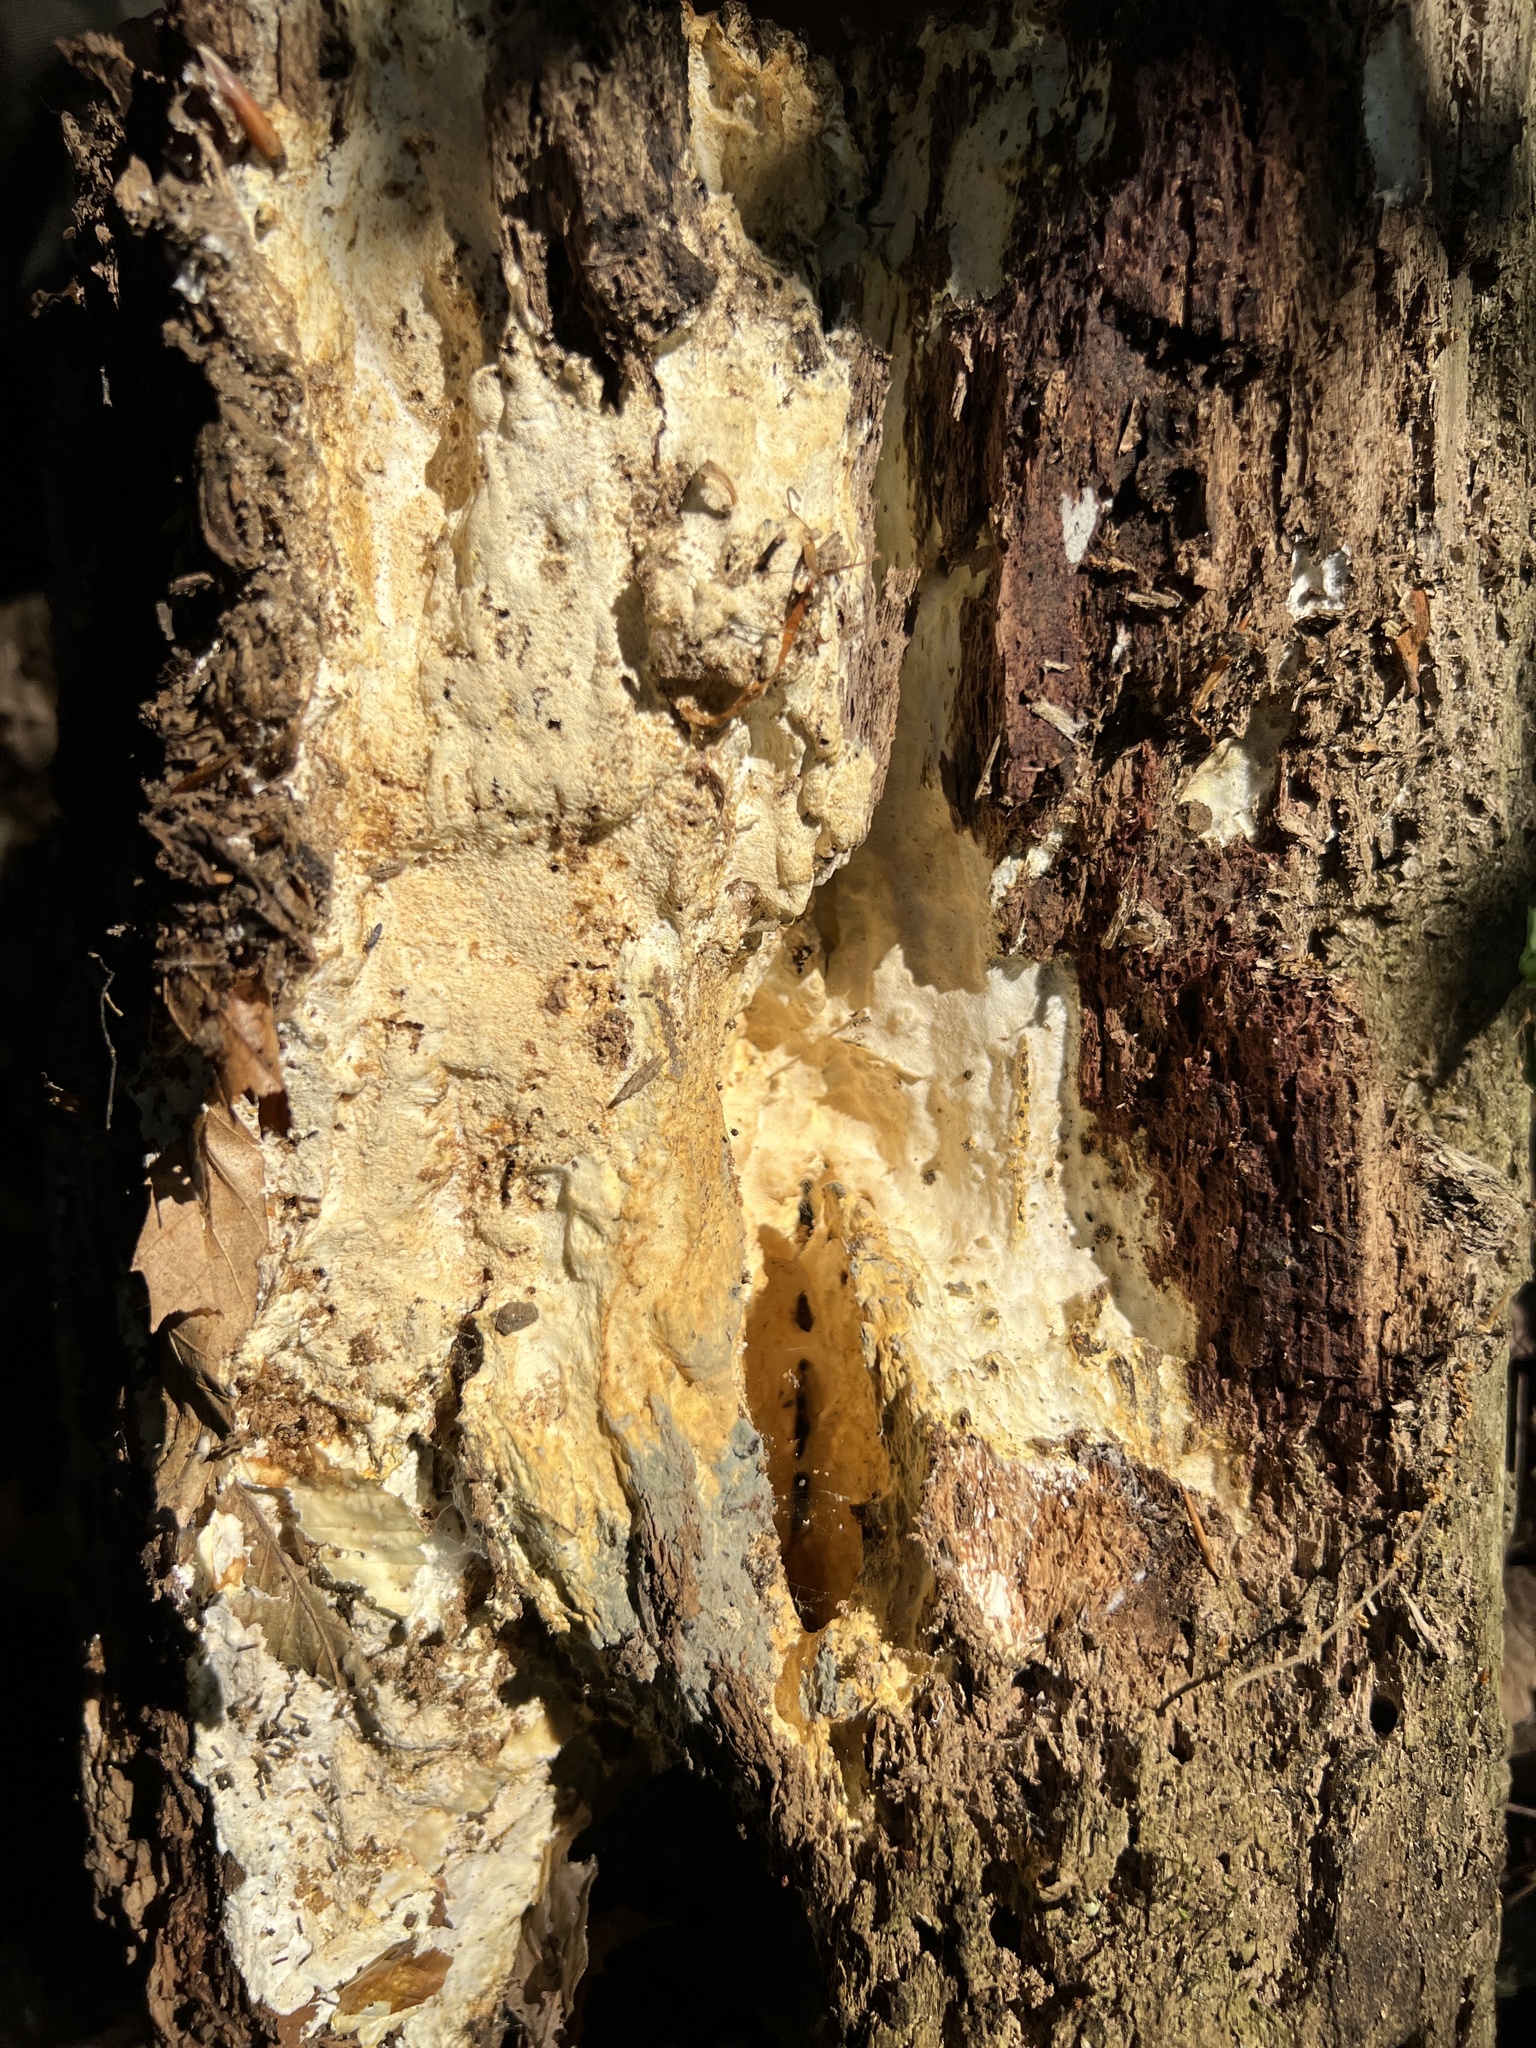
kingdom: Fungi
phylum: Basidiomycota
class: Agaricomycetes
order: Russulales
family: Hericiaceae
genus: Pseudowrightoporia
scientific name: Pseudowrightoporia cylindrospora
